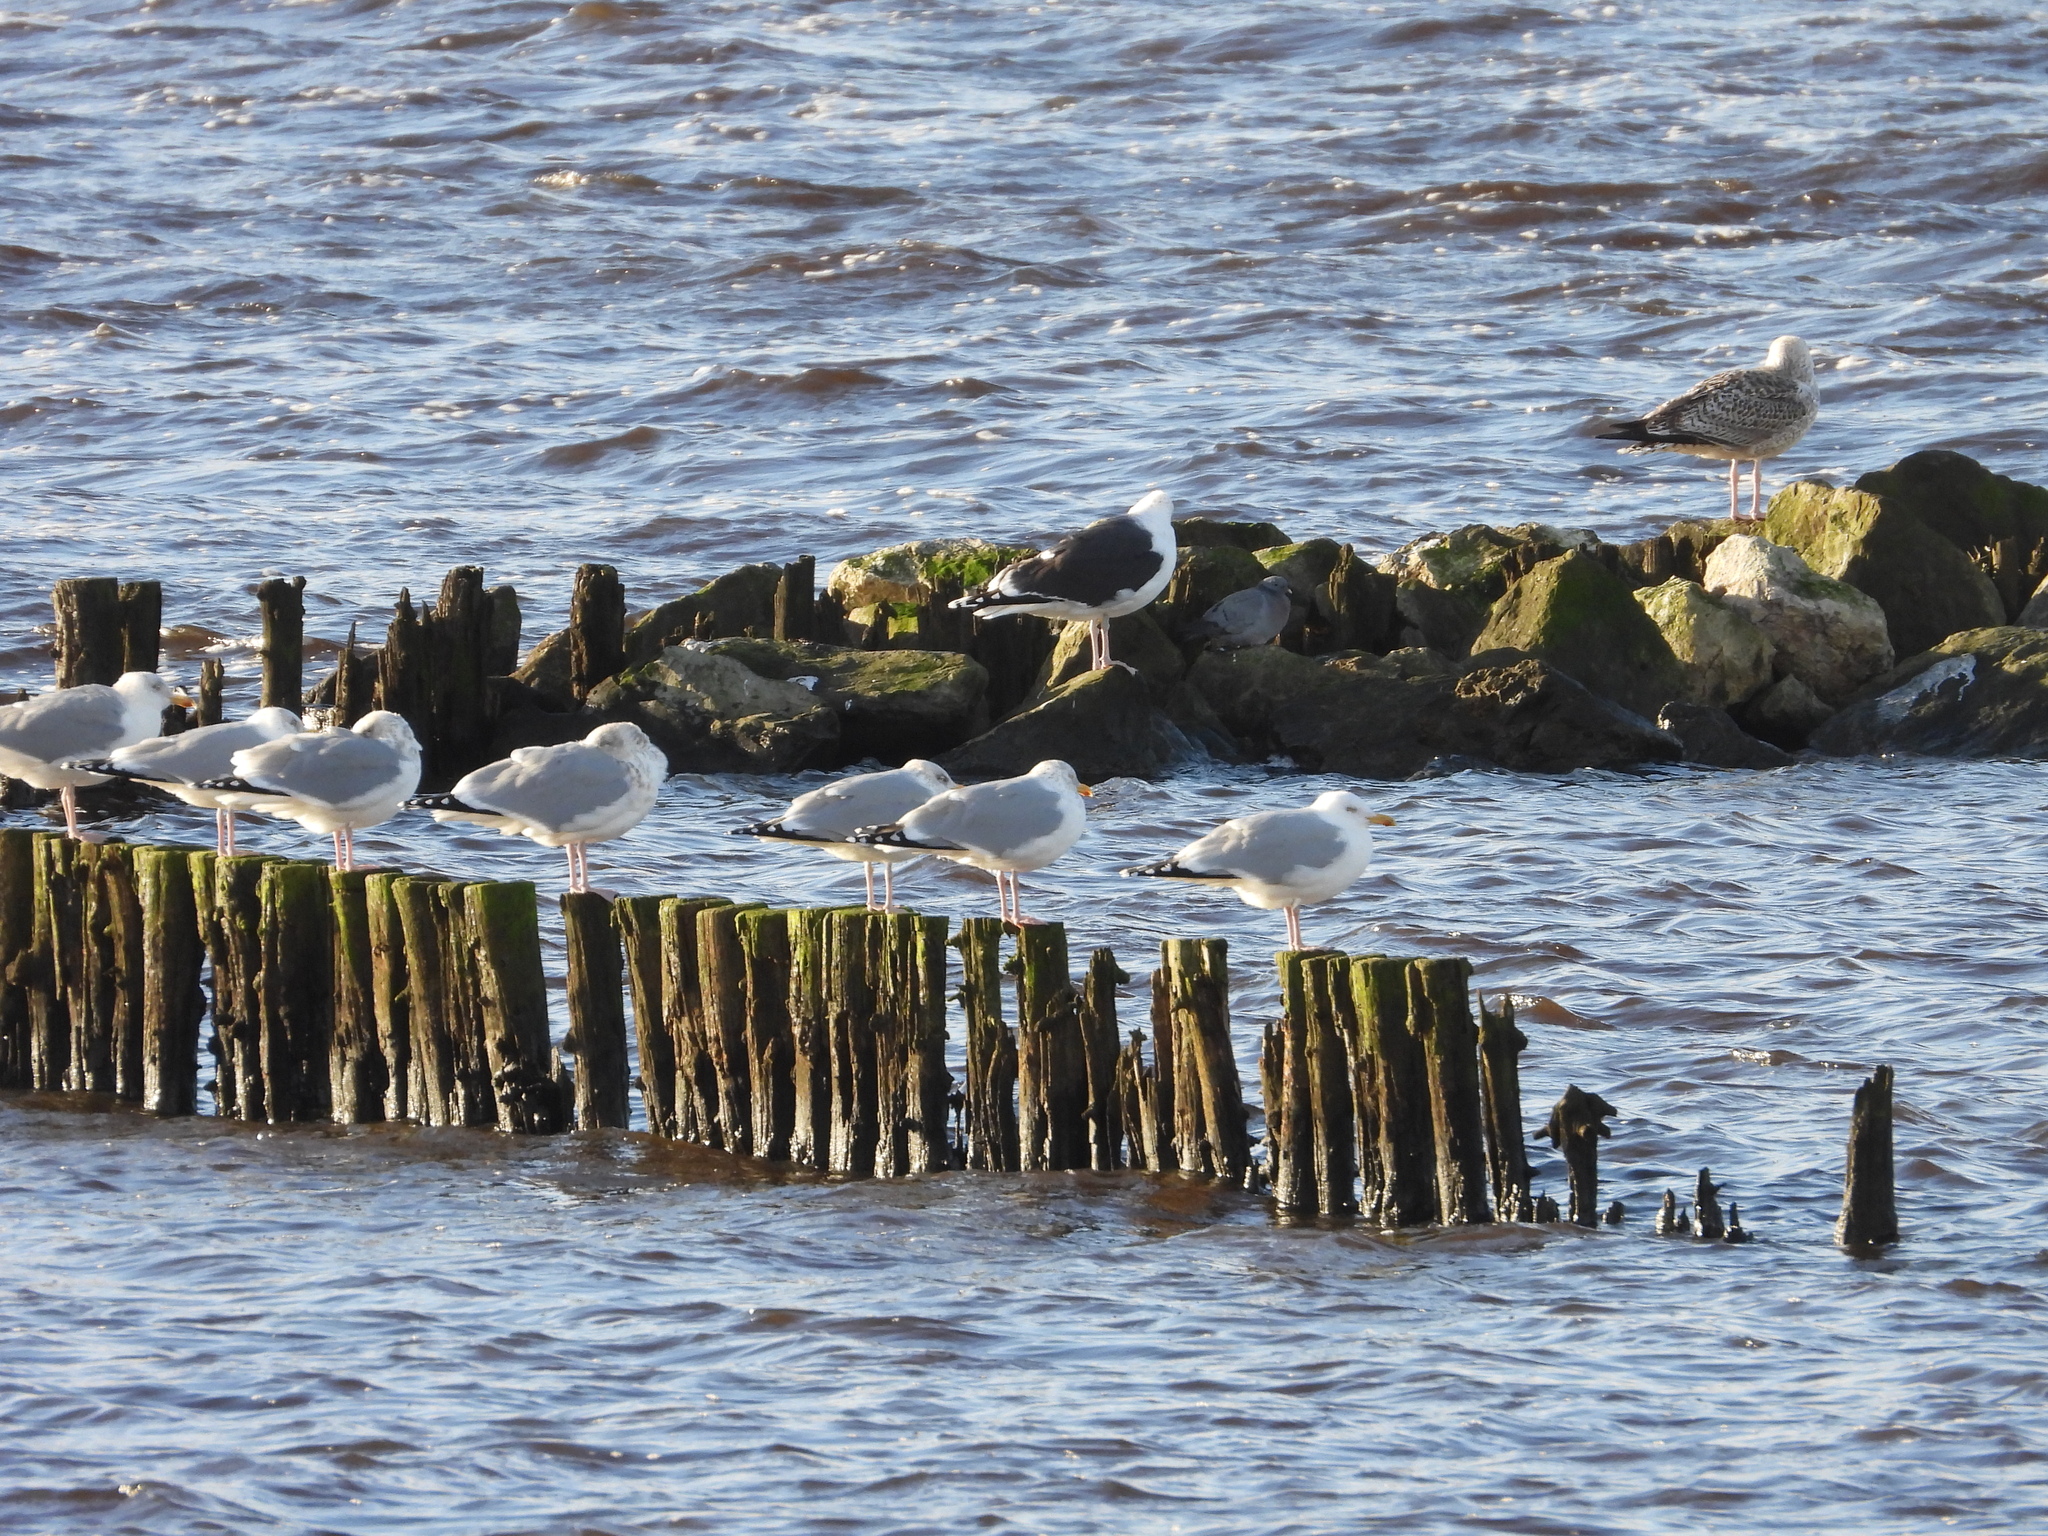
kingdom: Animalia
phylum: Chordata
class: Aves
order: Charadriiformes
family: Laridae
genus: Larus
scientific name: Larus argentatus
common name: Herring gull
